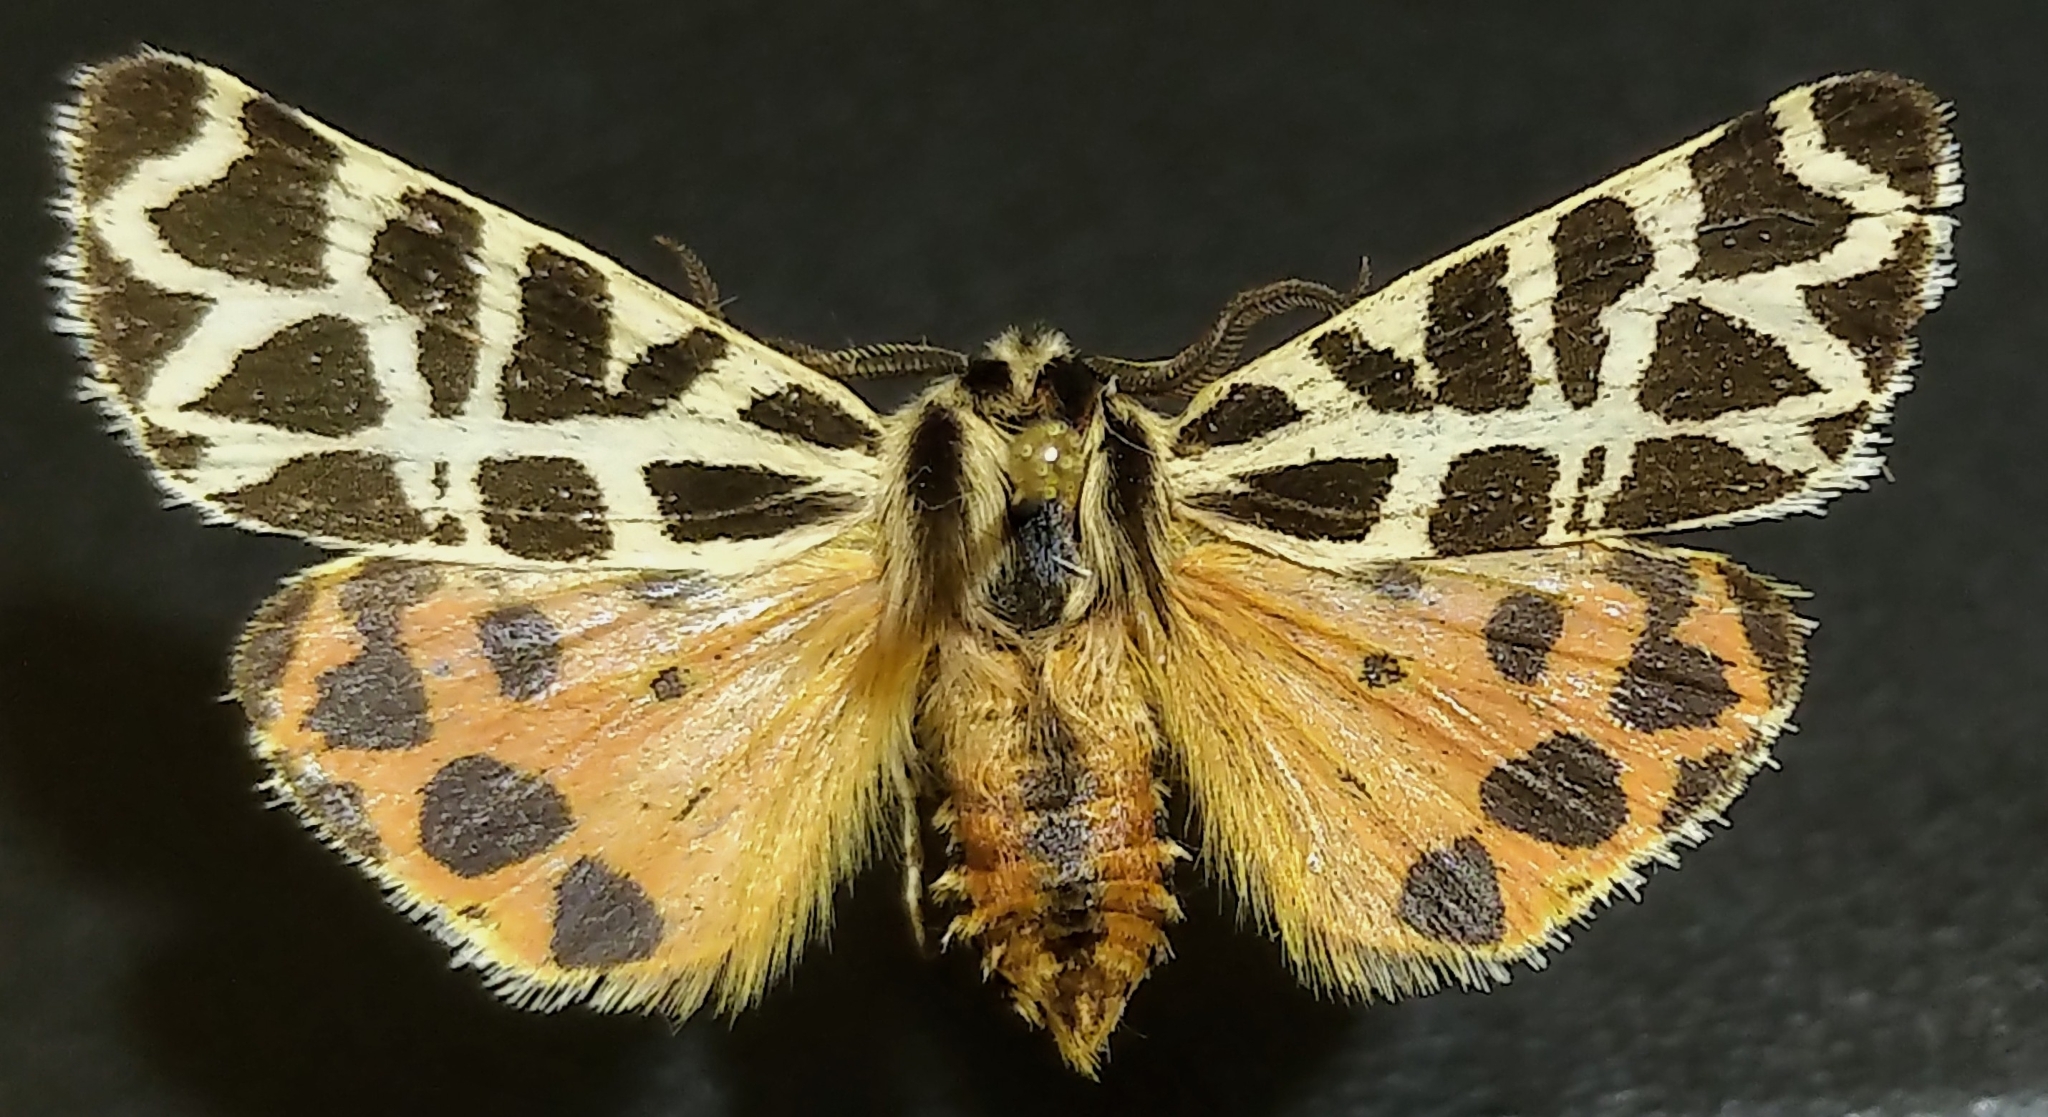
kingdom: Animalia
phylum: Arthropoda
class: Insecta
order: Lepidoptera
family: Erebidae
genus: Apantesis
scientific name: Apantesis
